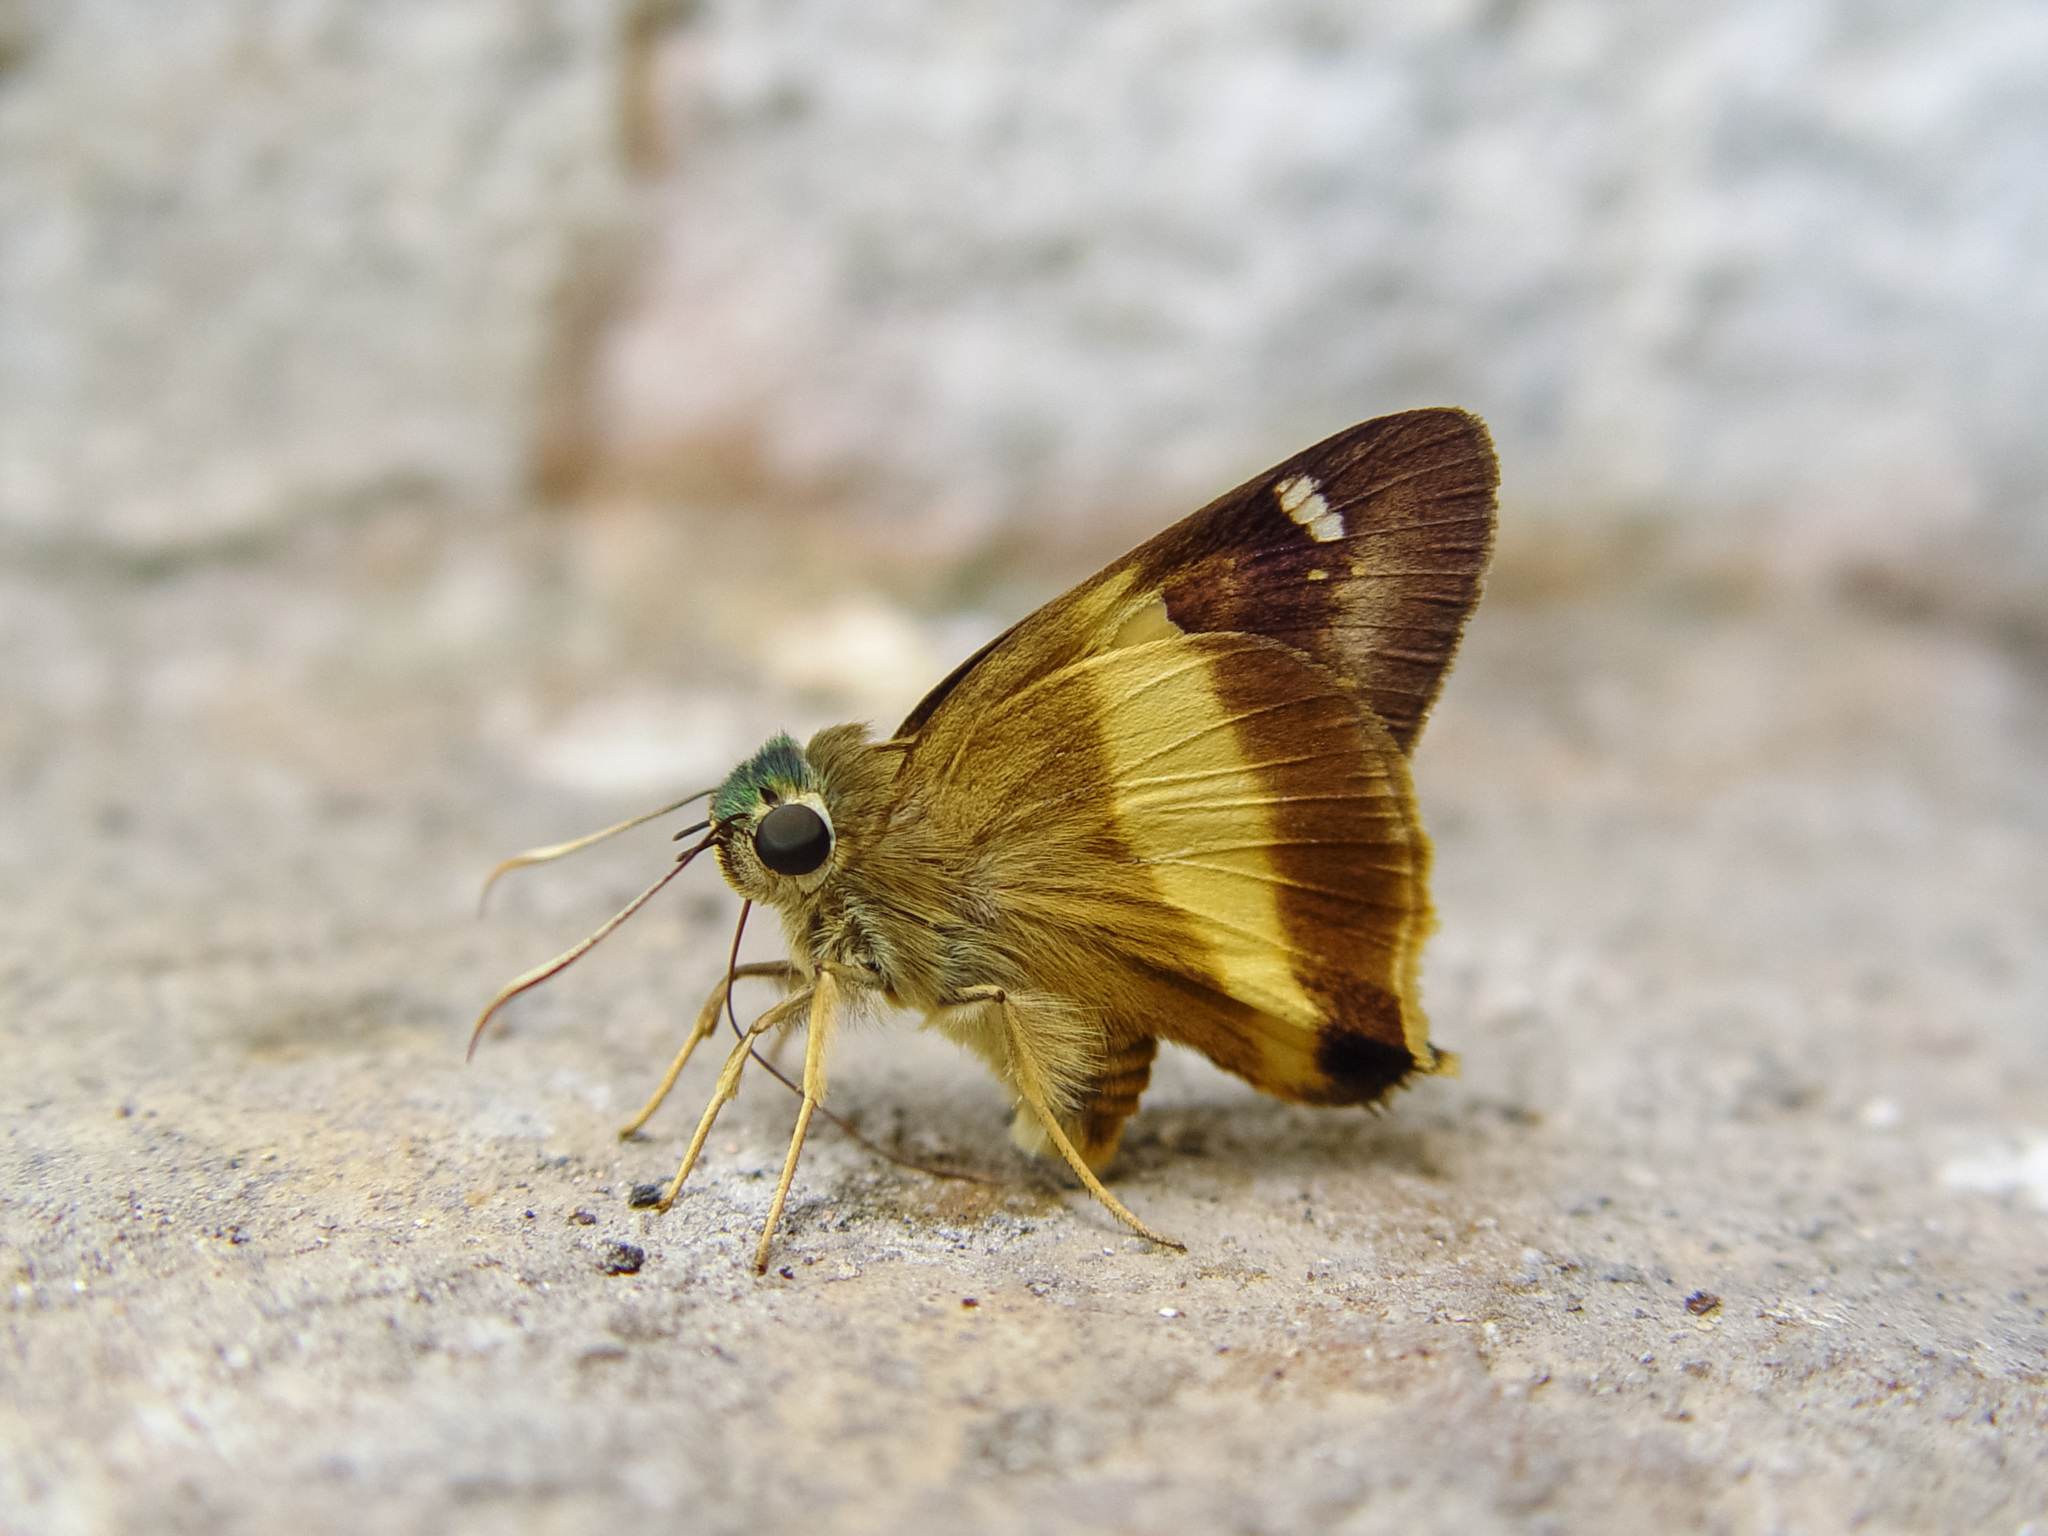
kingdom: Animalia
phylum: Arthropoda
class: Insecta
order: Lepidoptera
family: Hesperiidae
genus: Hasora
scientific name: Hasora schoenherr
